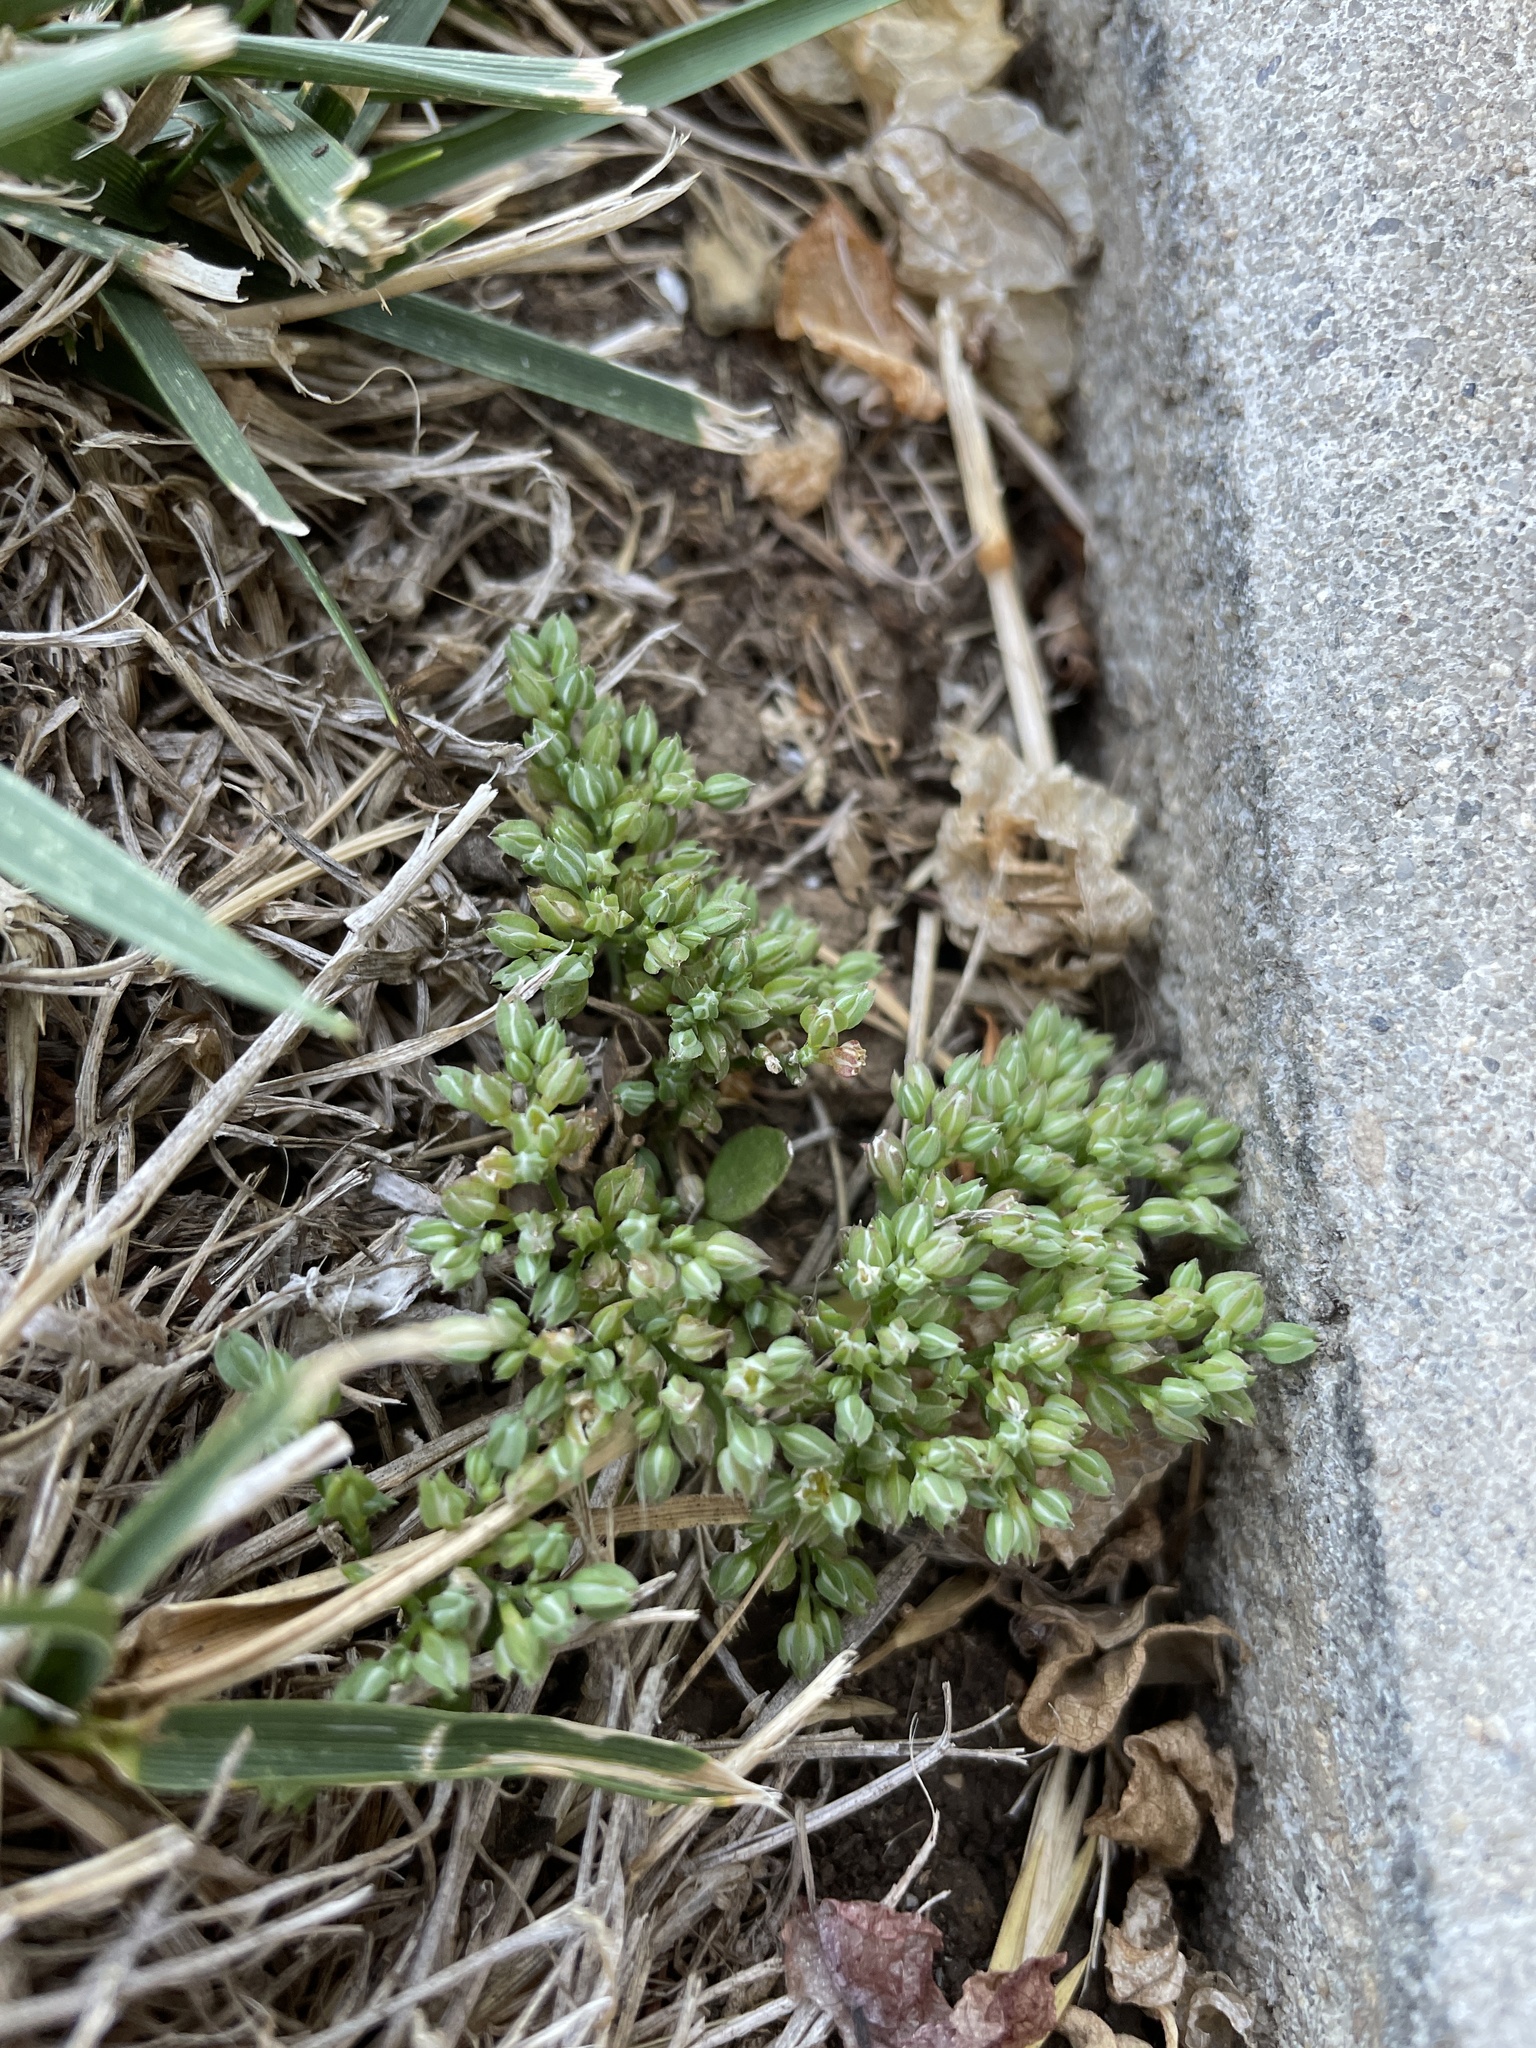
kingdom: Plantae
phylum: Tracheophyta
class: Magnoliopsida
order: Caryophyllales
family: Caryophyllaceae
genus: Polycarpon
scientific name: Polycarpon tetraphyllum
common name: Four-leaved all-seed
